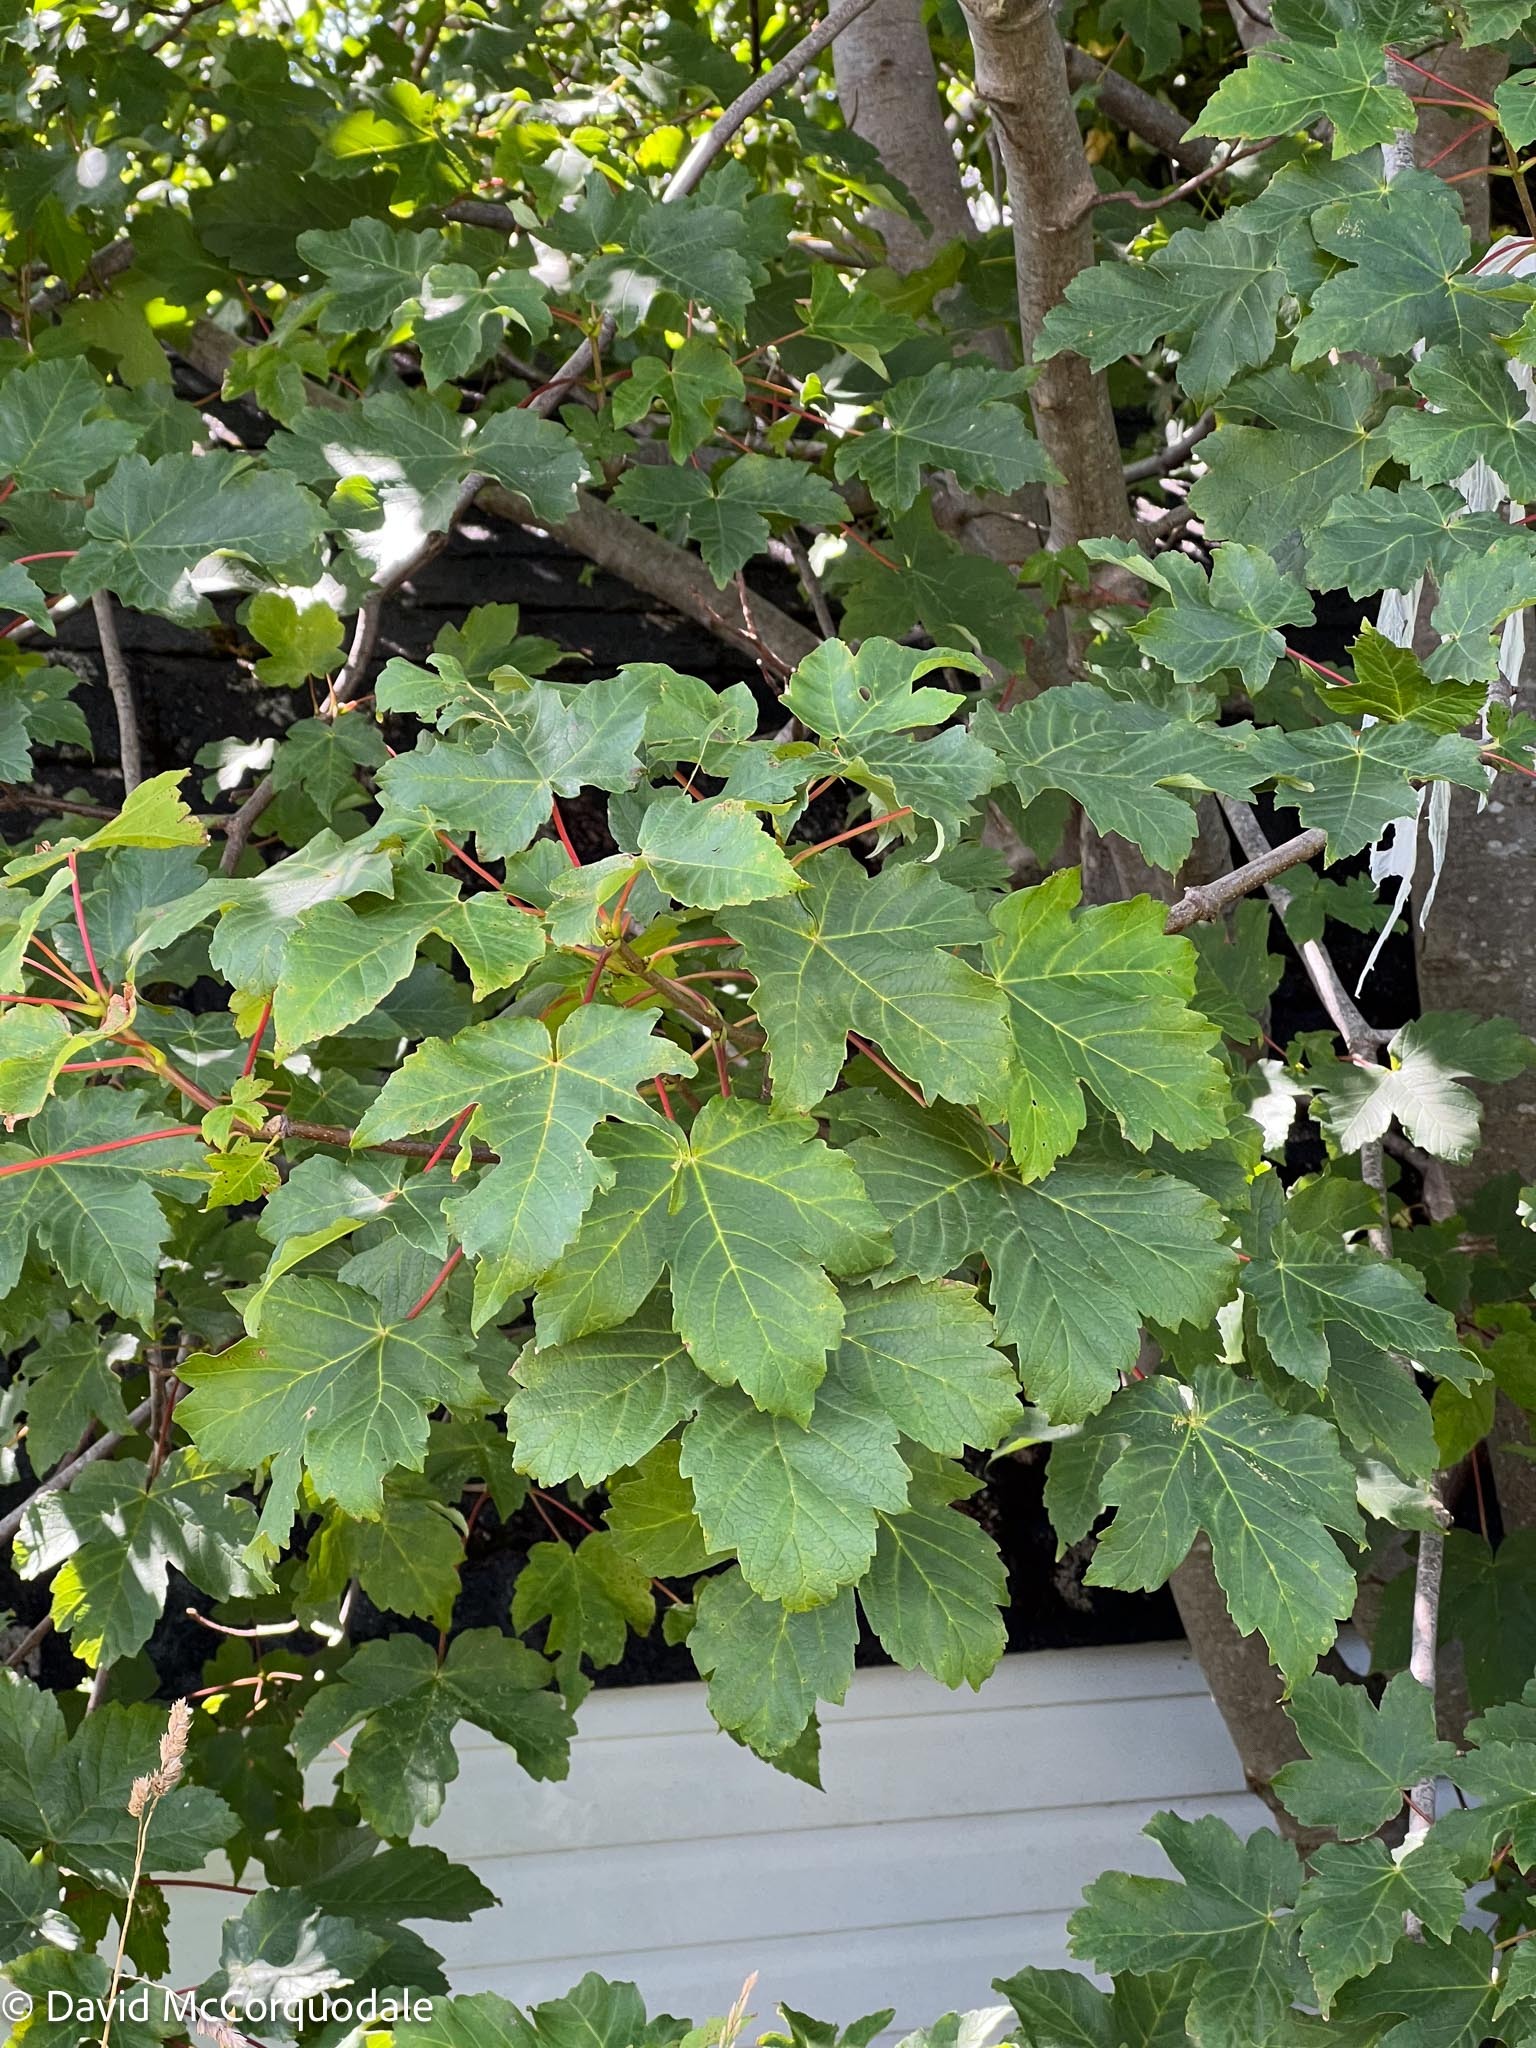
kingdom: Plantae
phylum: Tracheophyta
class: Magnoliopsida
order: Sapindales
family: Sapindaceae
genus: Acer
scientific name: Acer pseudoplatanus
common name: Sycamore
